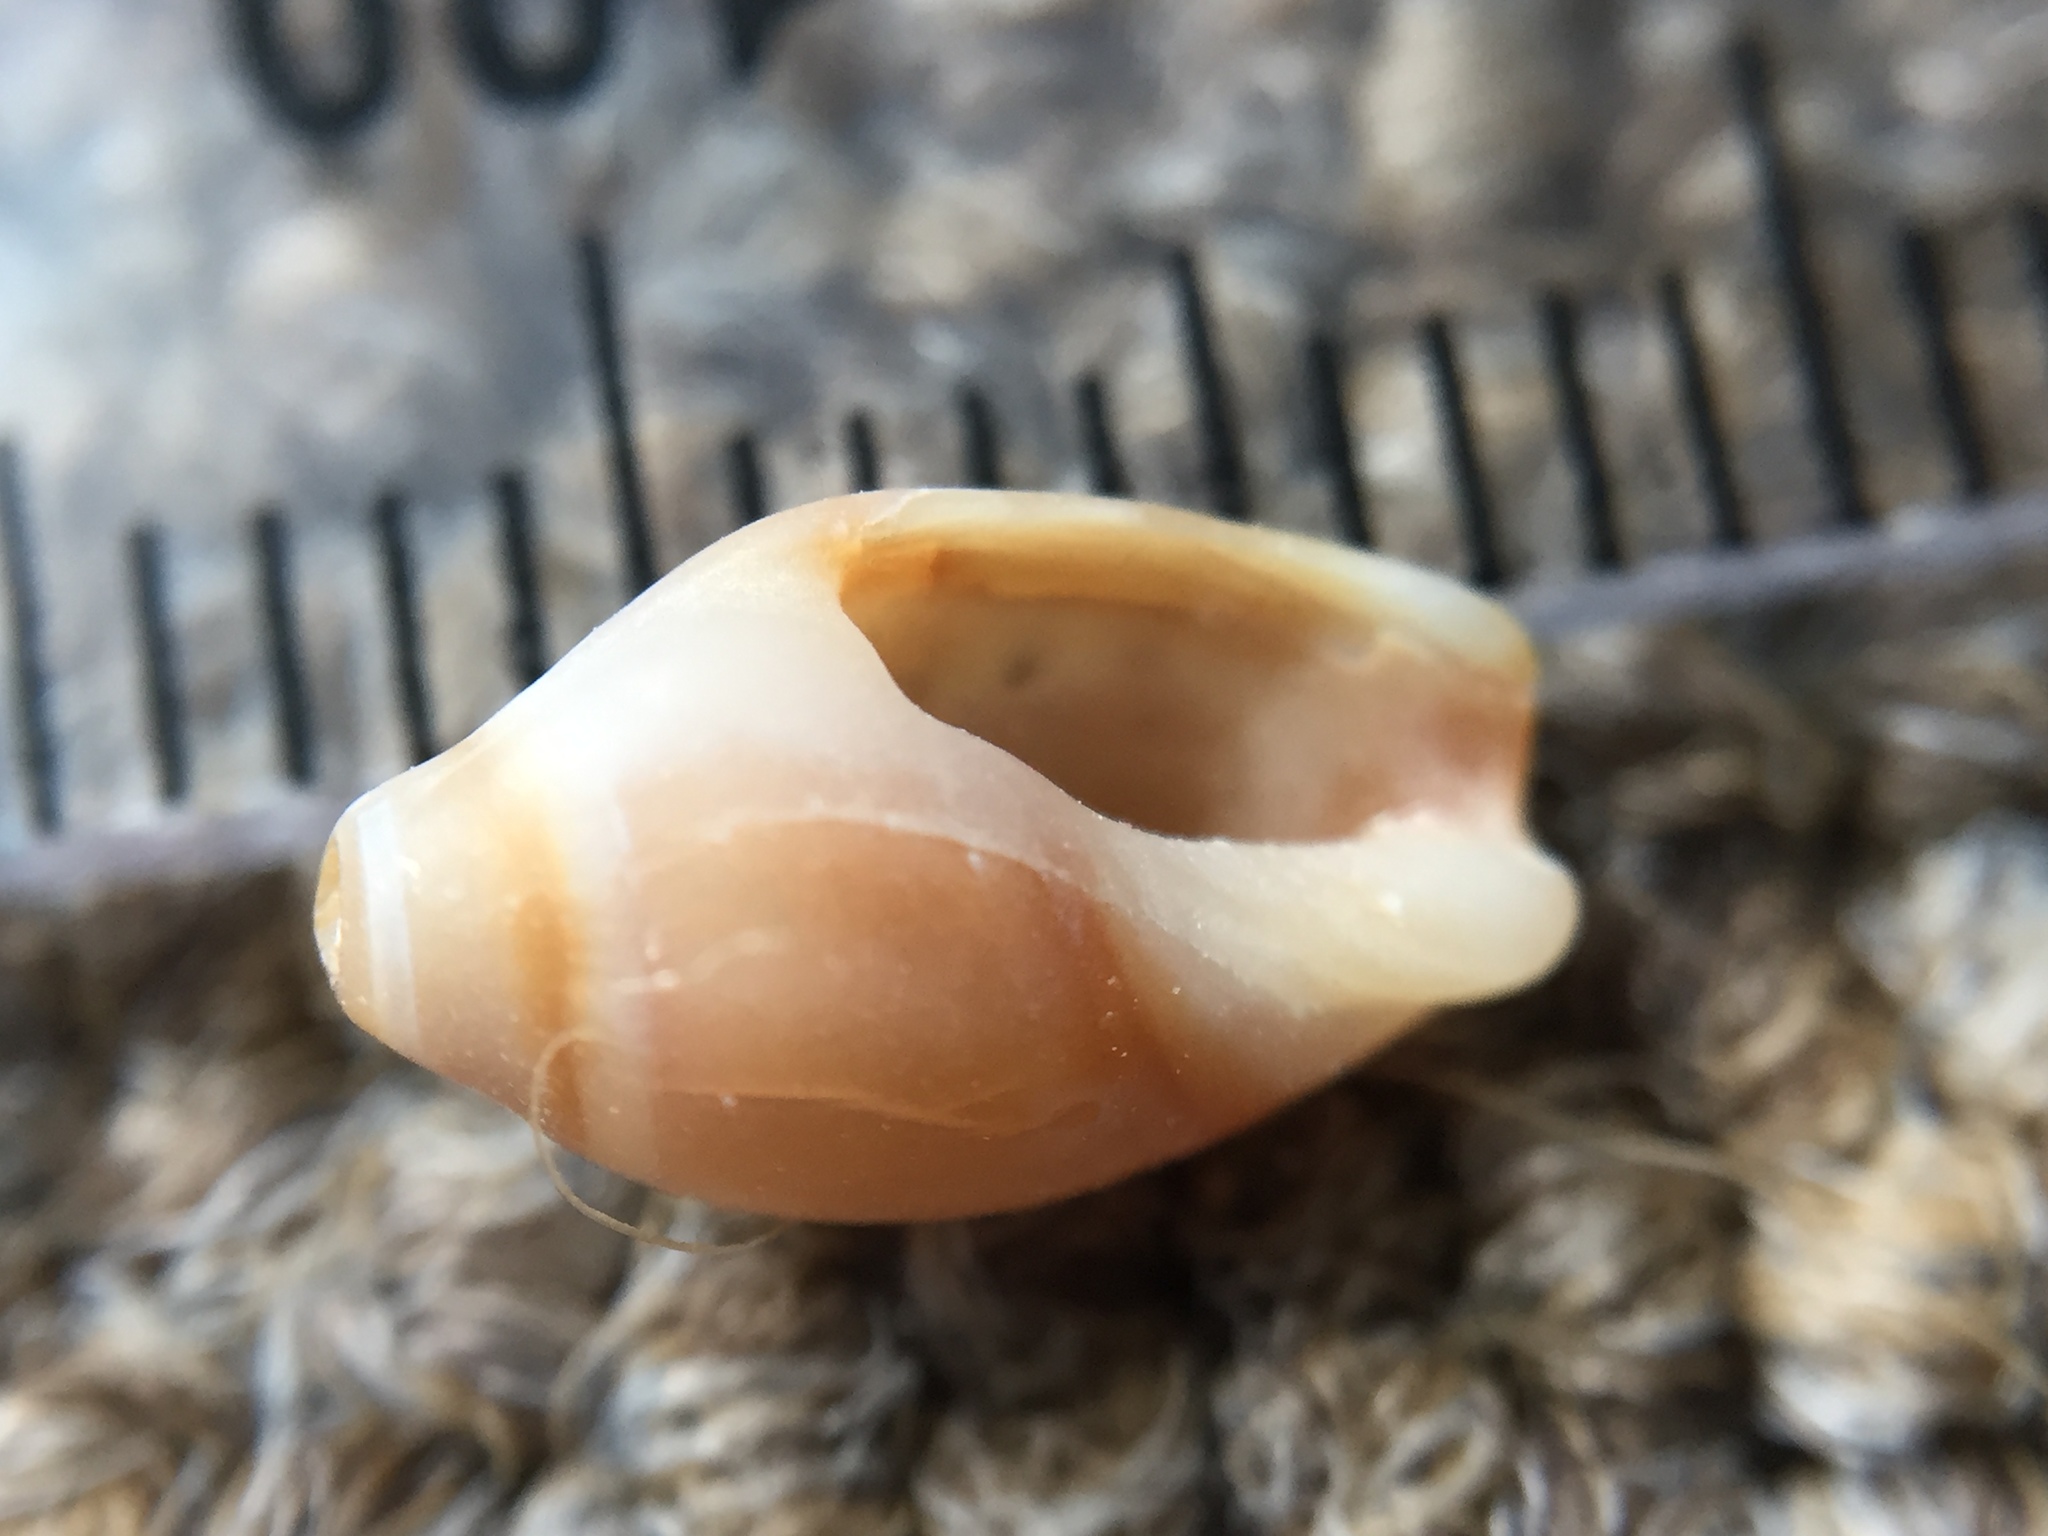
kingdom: Animalia
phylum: Mollusca
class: Gastropoda
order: Neogastropoda
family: Ancillariidae
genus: Amalda
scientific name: Amalda depressa
